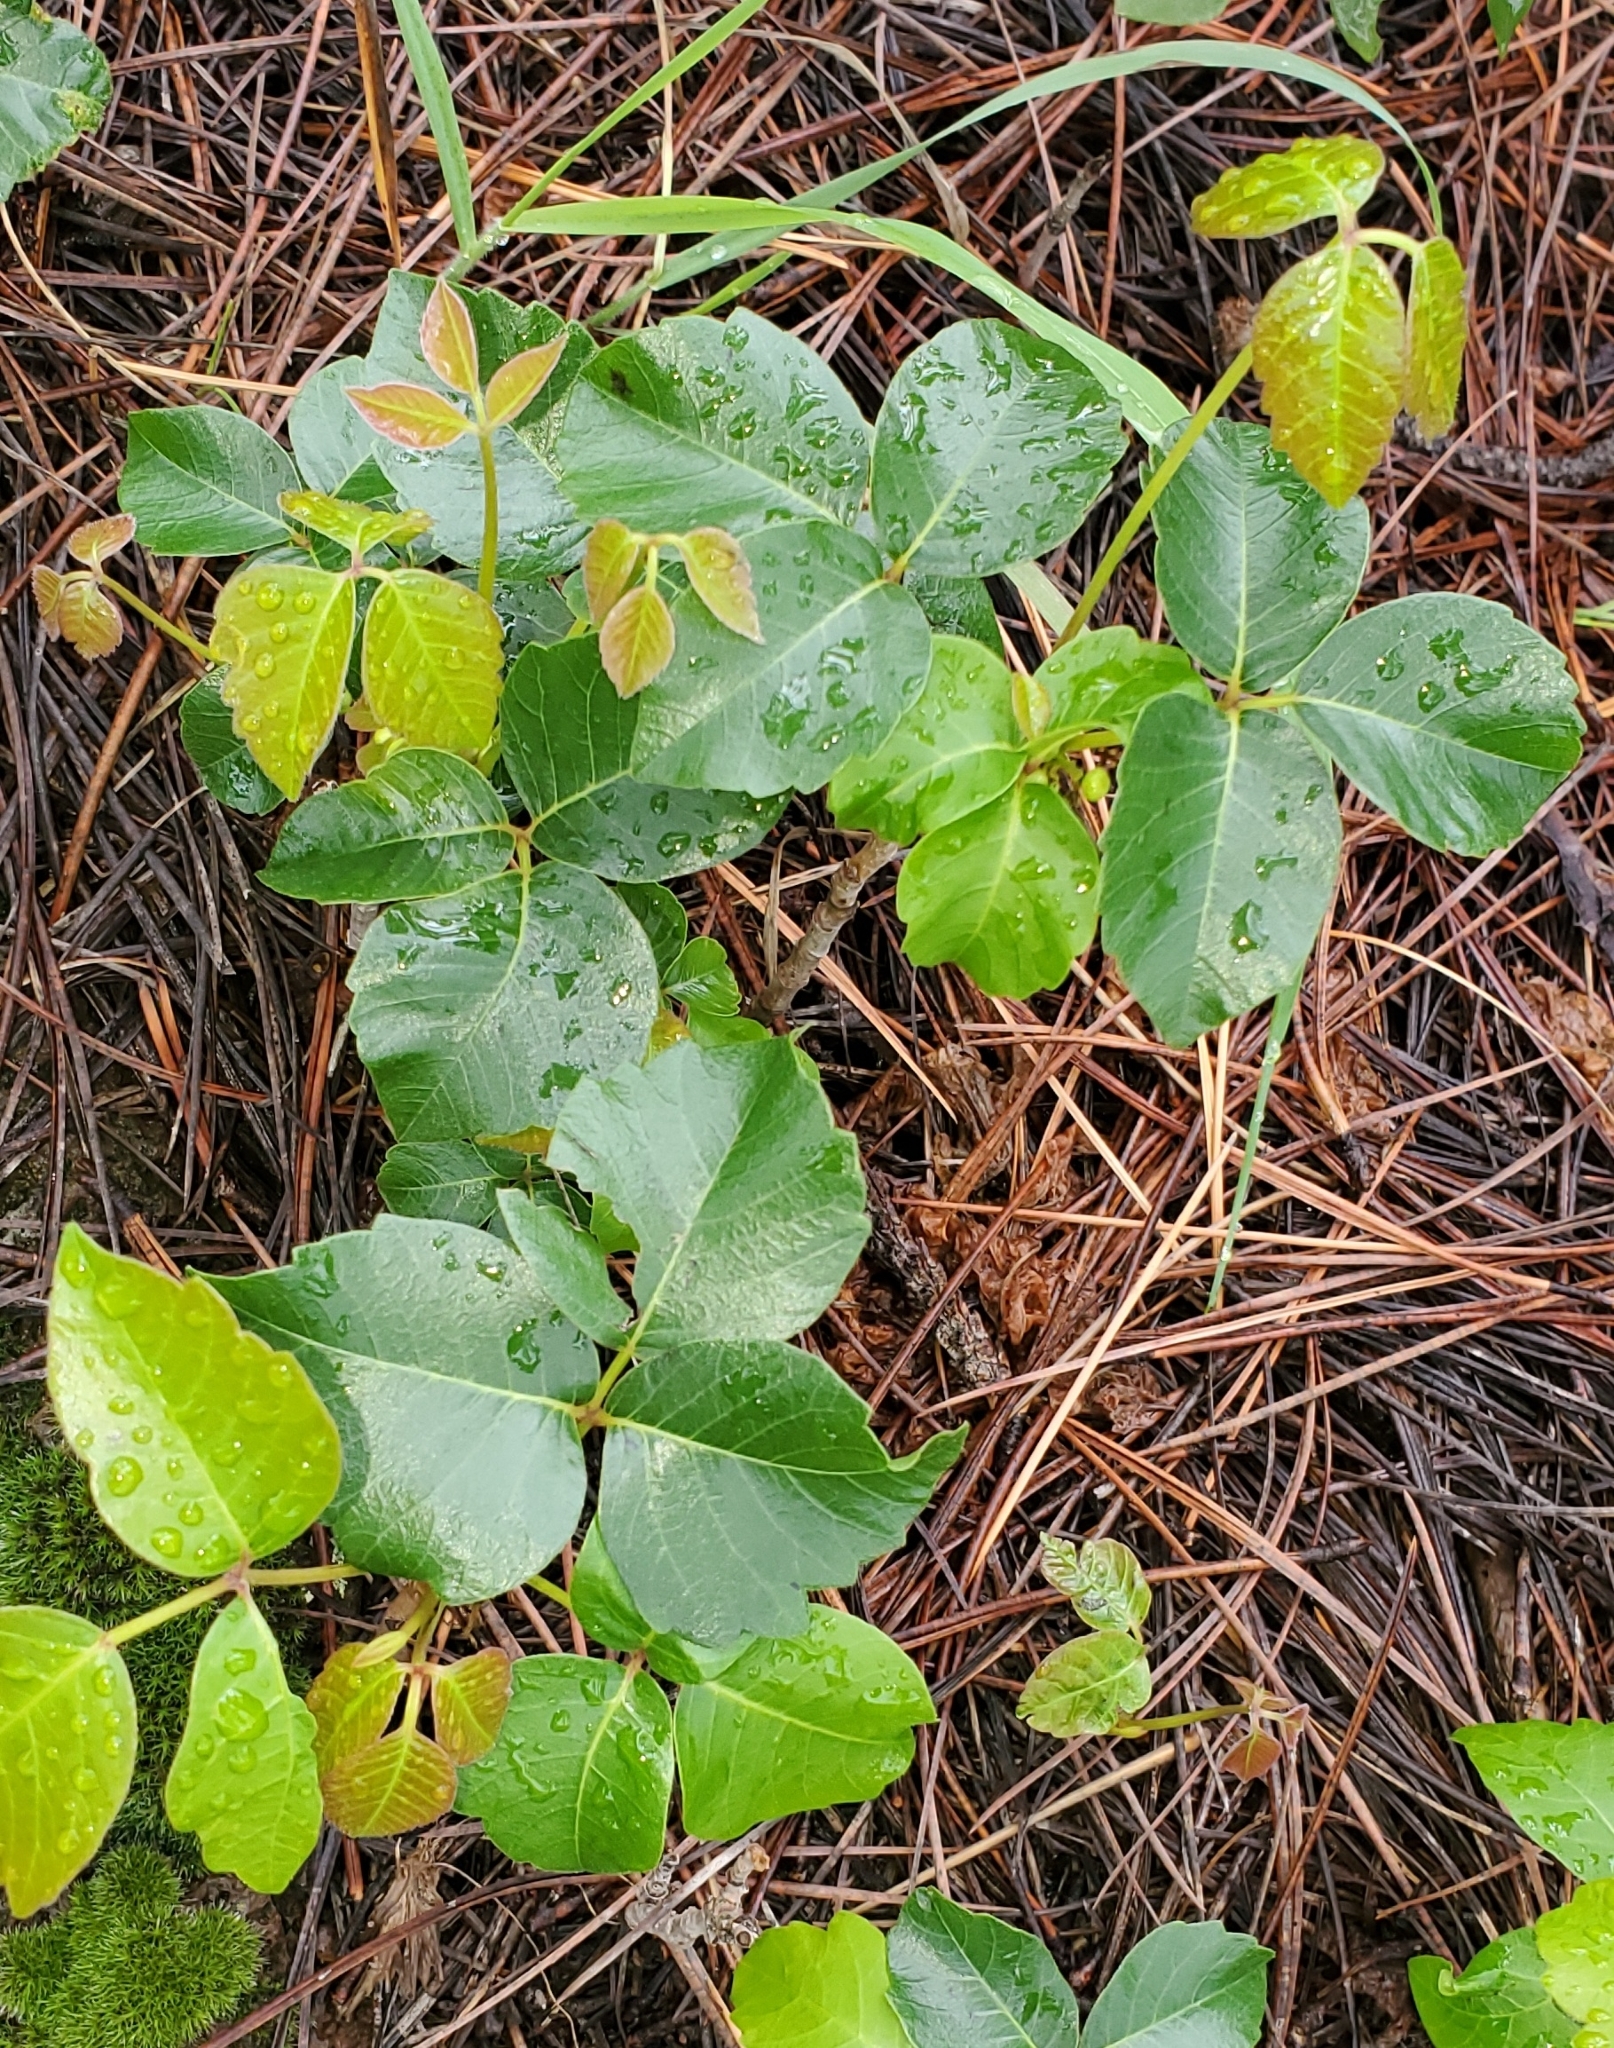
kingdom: Plantae
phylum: Tracheophyta
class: Magnoliopsida
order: Sapindales
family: Anacardiaceae
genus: Toxicodendron
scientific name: Toxicodendron rydbergii
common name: Rydberg's poison-ivy
